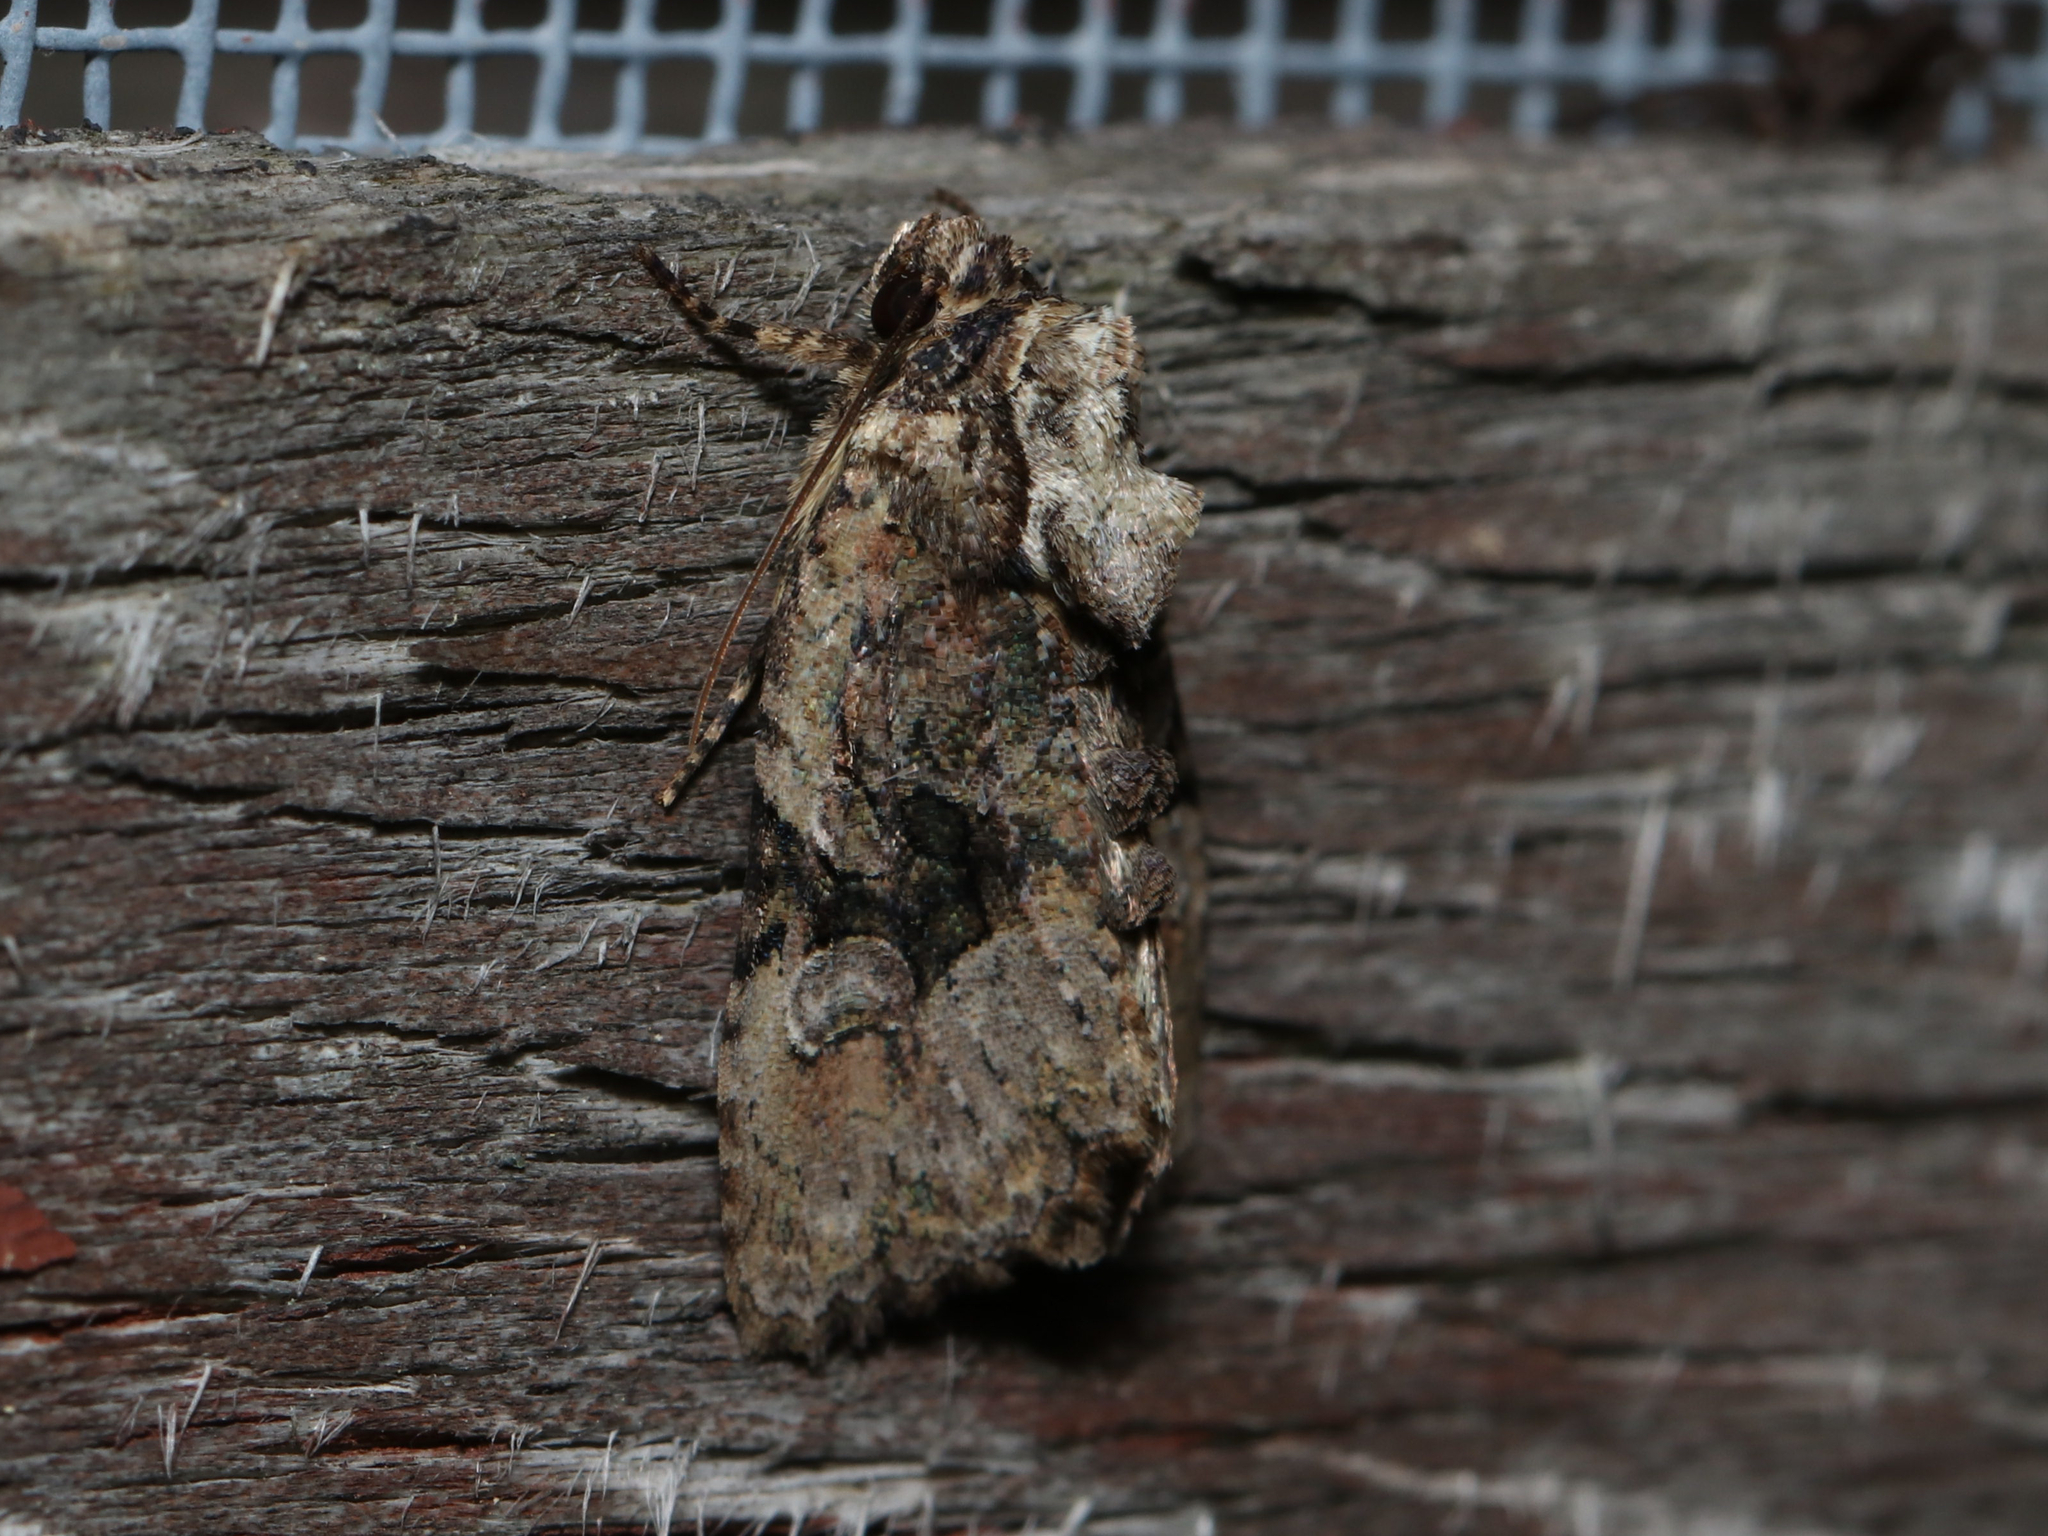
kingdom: Animalia
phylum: Arthropoda
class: Insecta
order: Lepidoptera
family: Noctuidae
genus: Oligia
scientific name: Oligia modica
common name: Black-banded brocade
